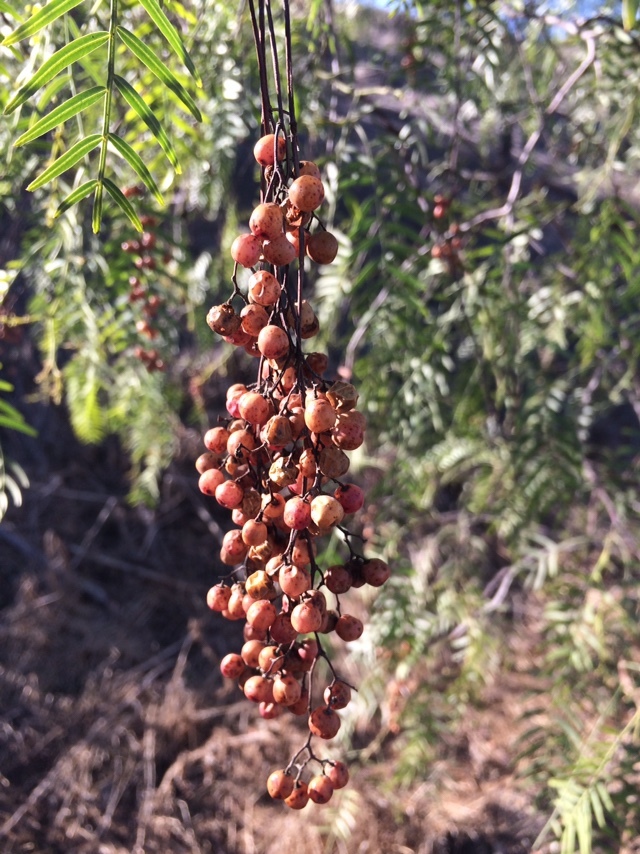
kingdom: Plantae
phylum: Tracheophyta
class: Magnoliopsida
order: Sapindales
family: Anacardiaceae
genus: Schinus
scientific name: Schinus molle
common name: Peruvian peppertree
